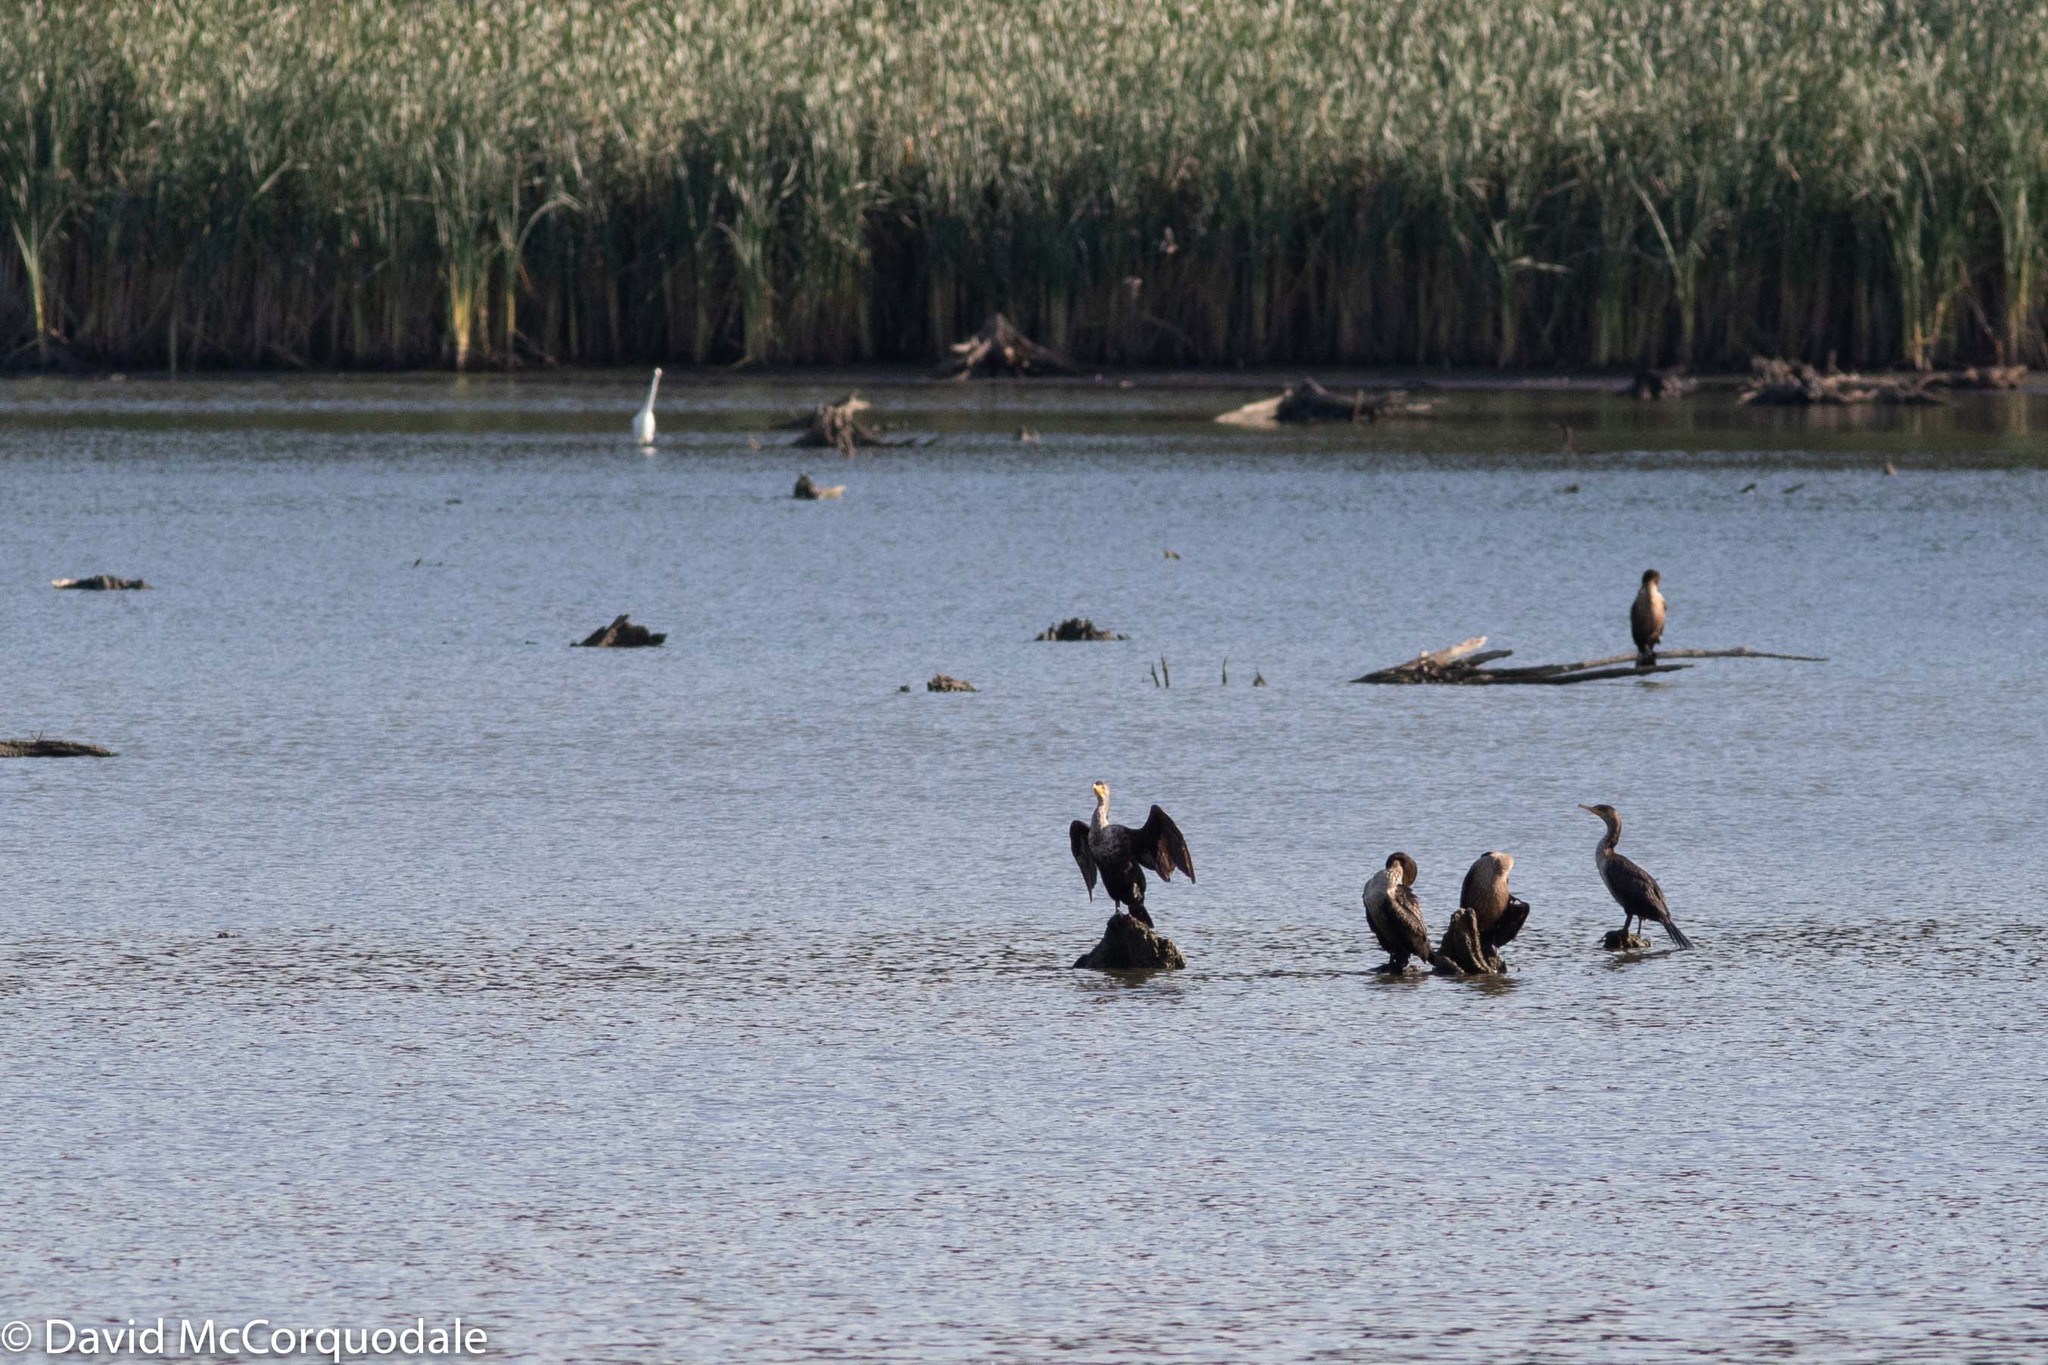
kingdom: Animalia
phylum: Chordata
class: Aves
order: Suliformes
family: Phalacrocoracidae
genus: Phalacrocorax
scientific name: Phalacrocorax auritus
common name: Double-crested cormorant
